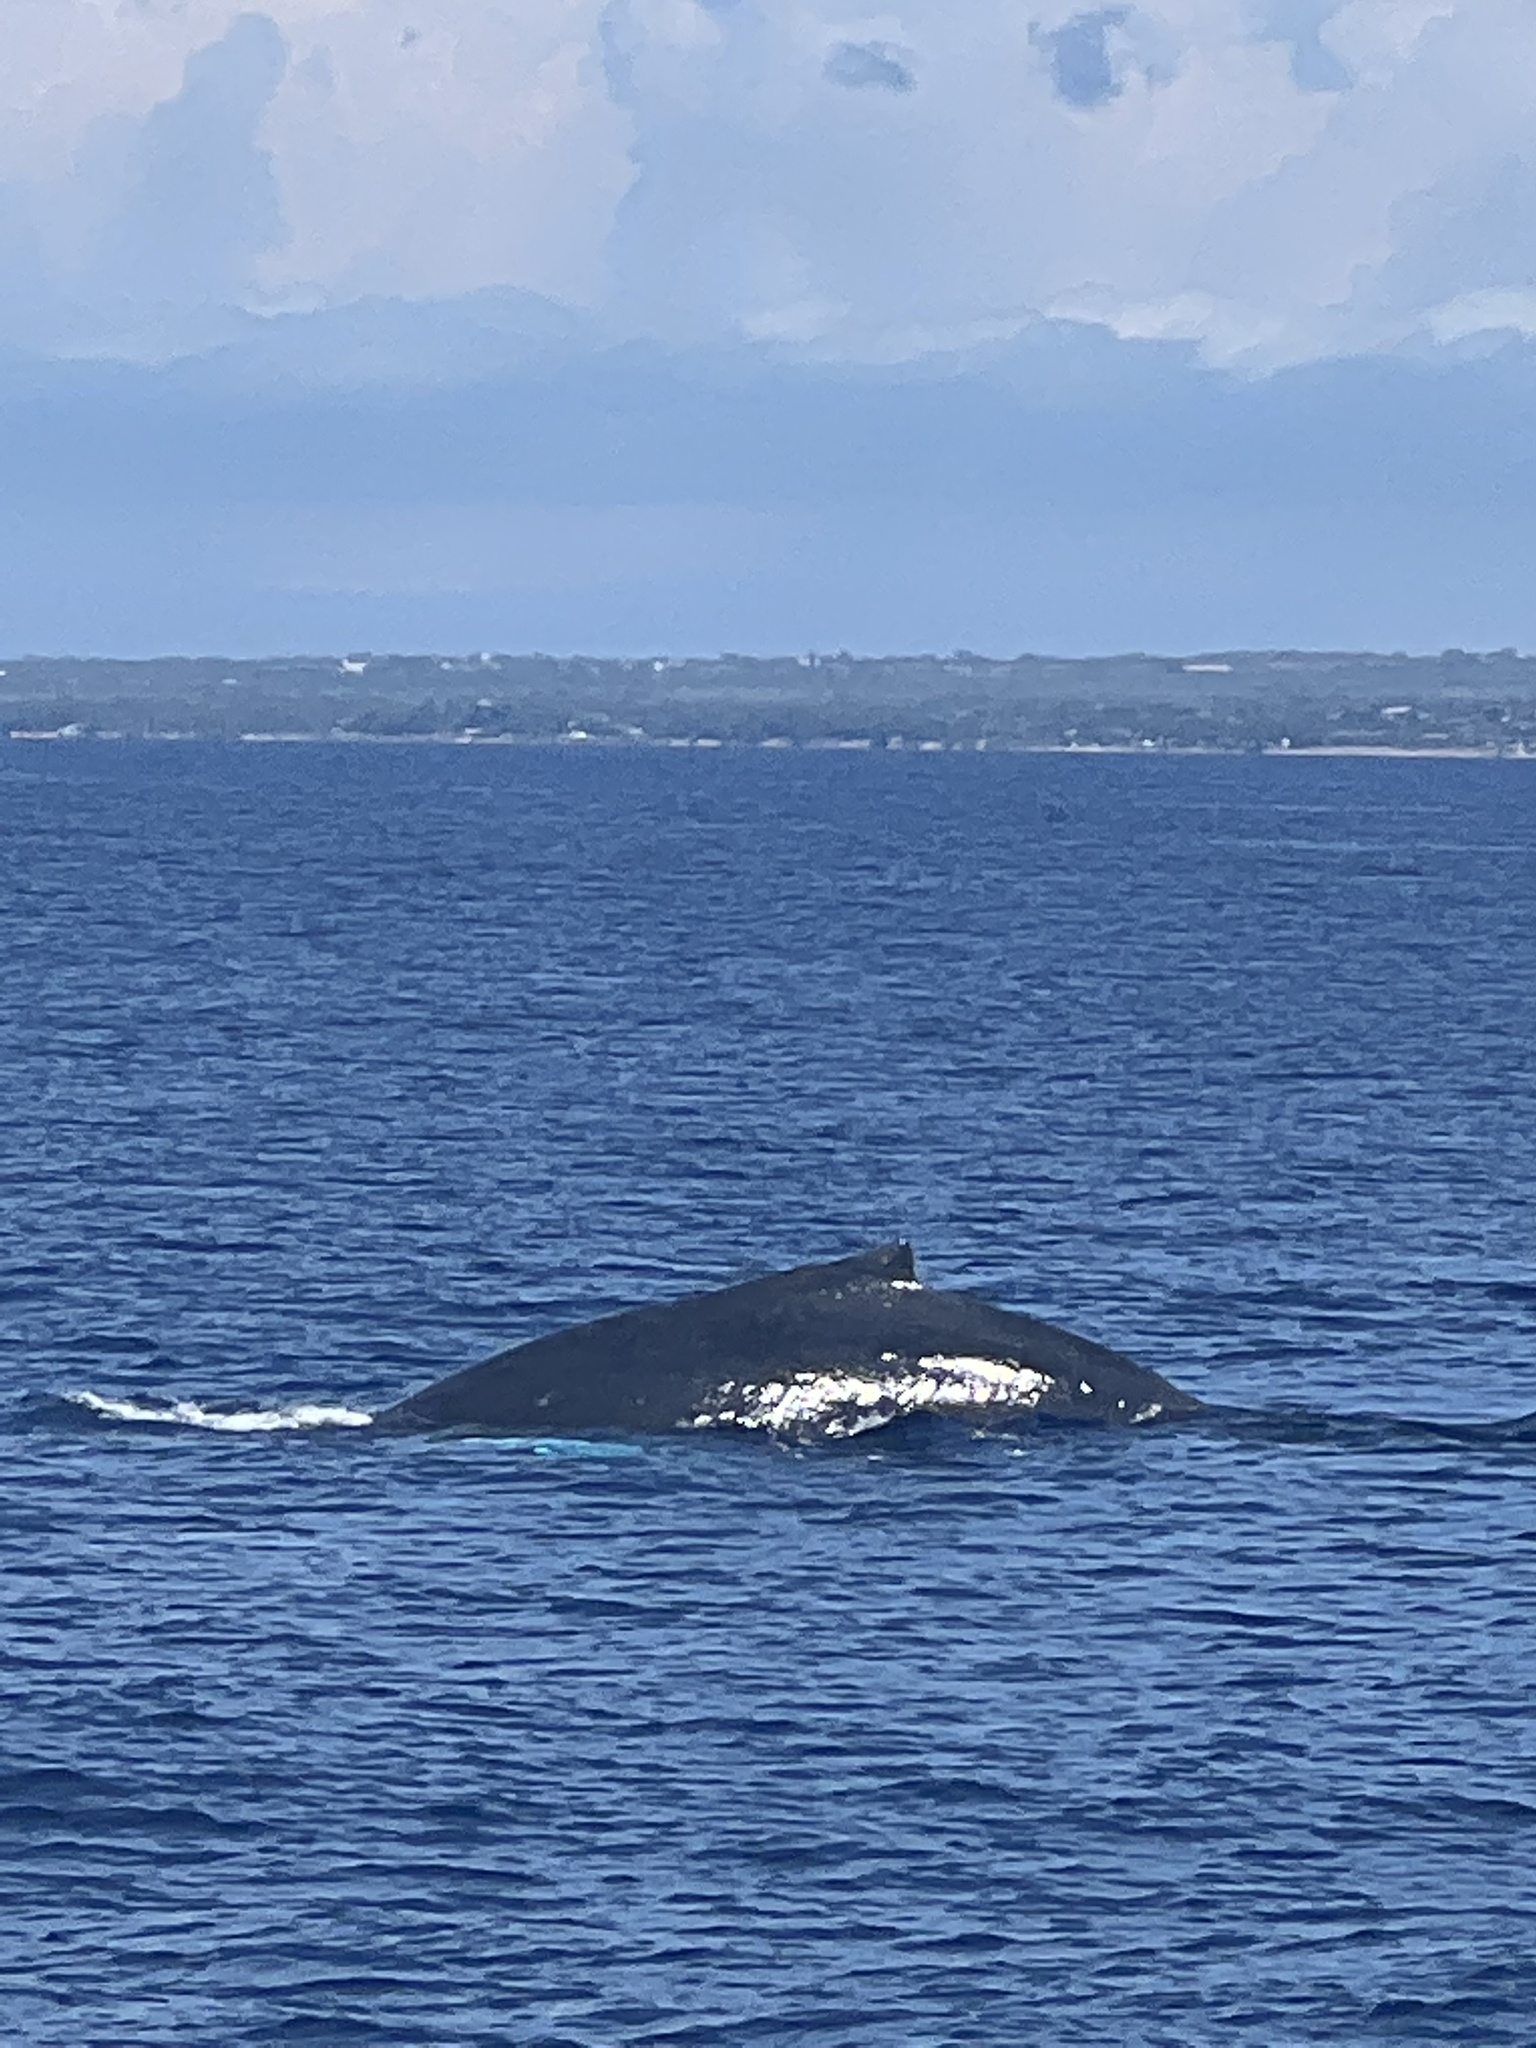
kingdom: Animalia
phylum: Chordata
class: Mammalia
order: Cetacea
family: Balaenopteridae
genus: Megaptera
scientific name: Megaptera novaeangliae
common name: Humpback whale
